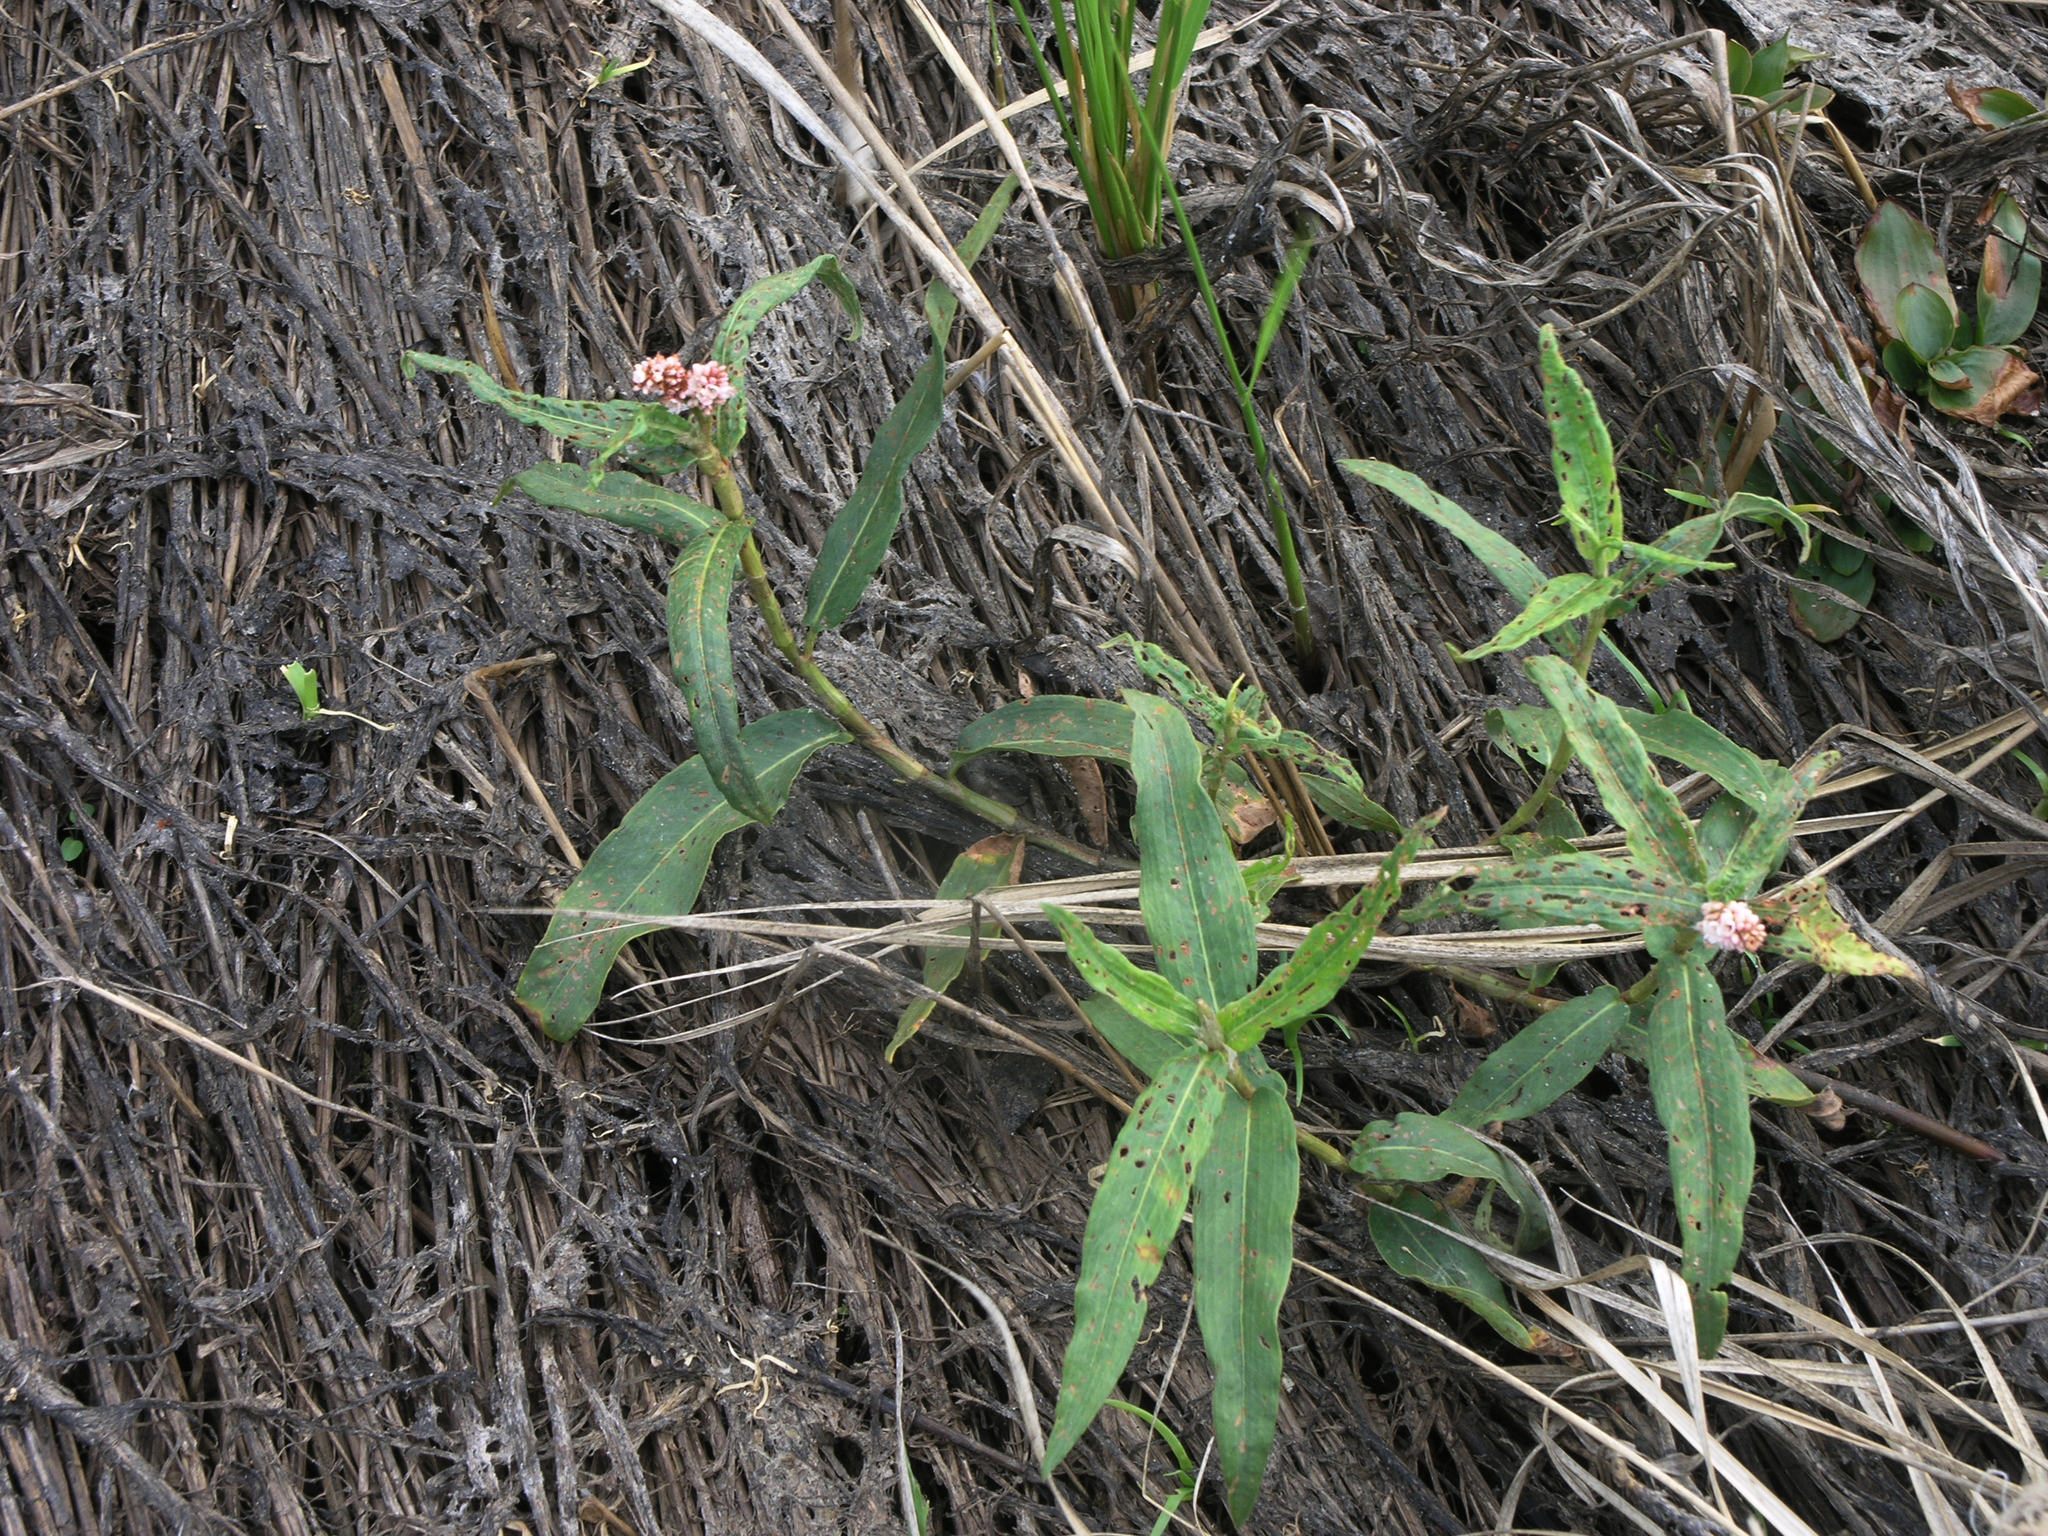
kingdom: Plantae
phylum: Tracheophyta
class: Magnoliopsida
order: Caryophyllales
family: Polygonaceae
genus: Persicaria
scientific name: Persicaria amphibia
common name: Amphibious bistort
